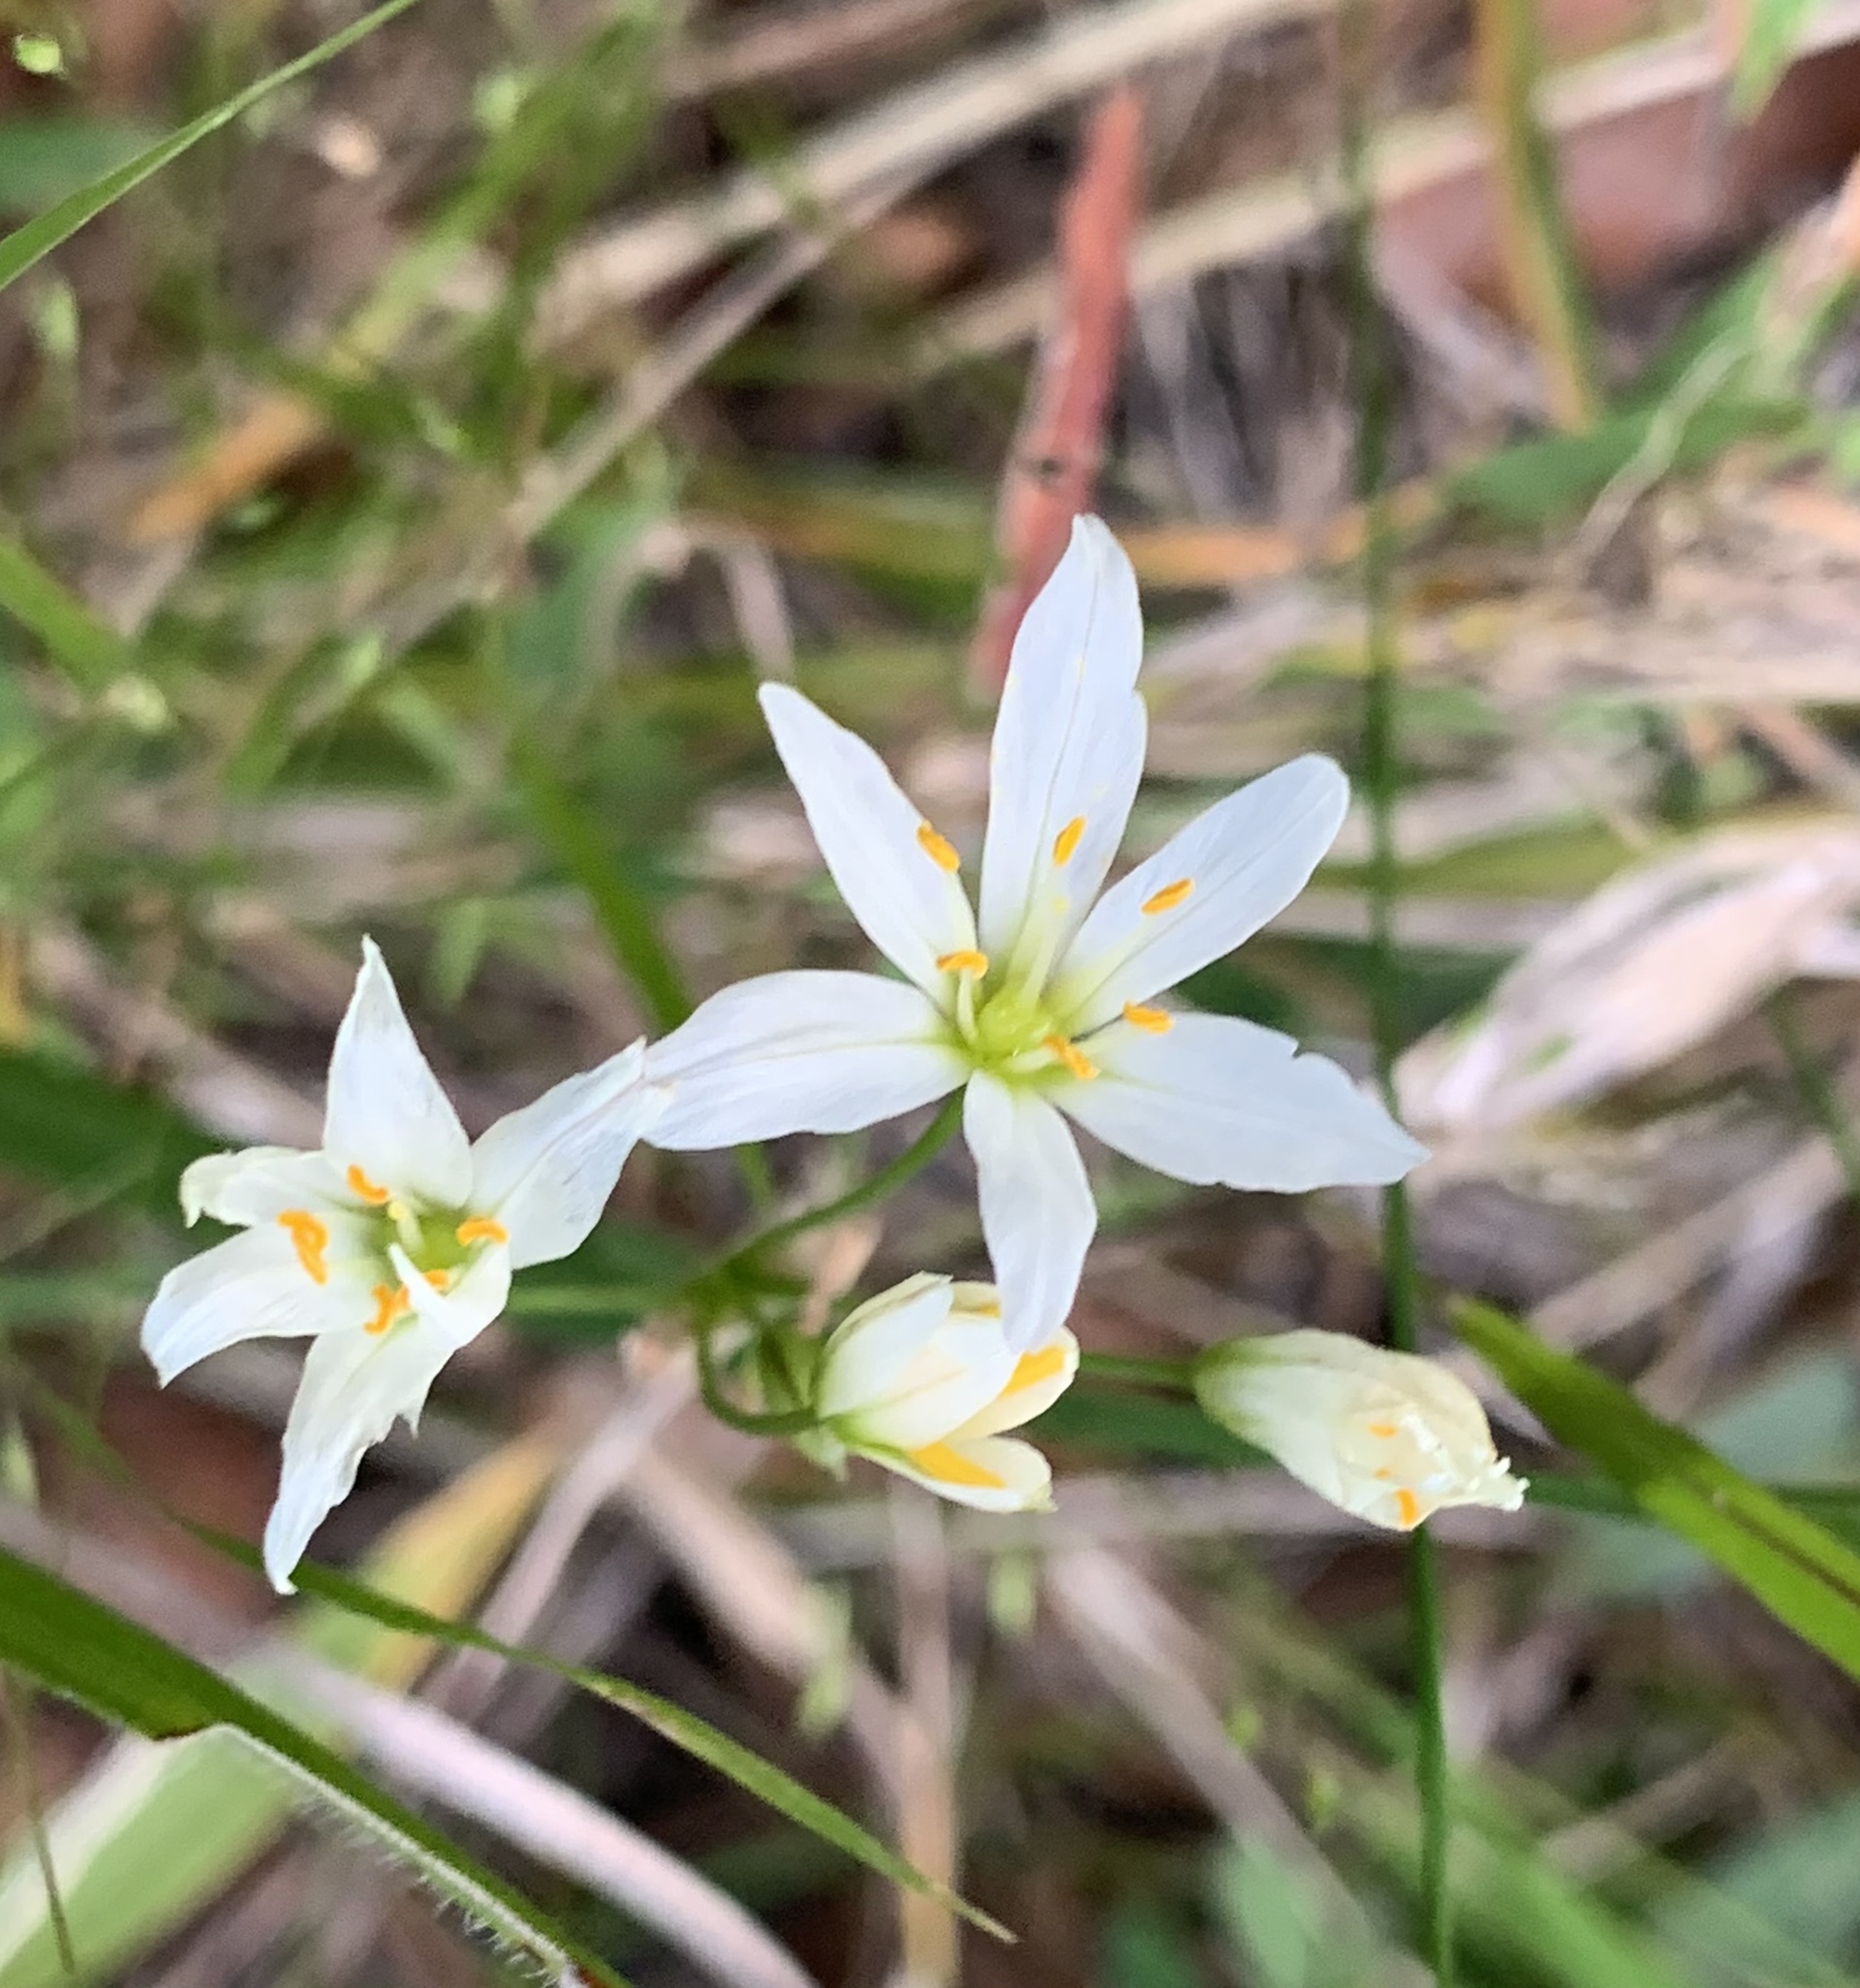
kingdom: Plantae
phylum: Tracheophyta
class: Liliopsida
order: Asparagales
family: Amaryllidaceae
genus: Nothoscordum
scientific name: Nothoscordum bivalve
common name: Crow-poison
